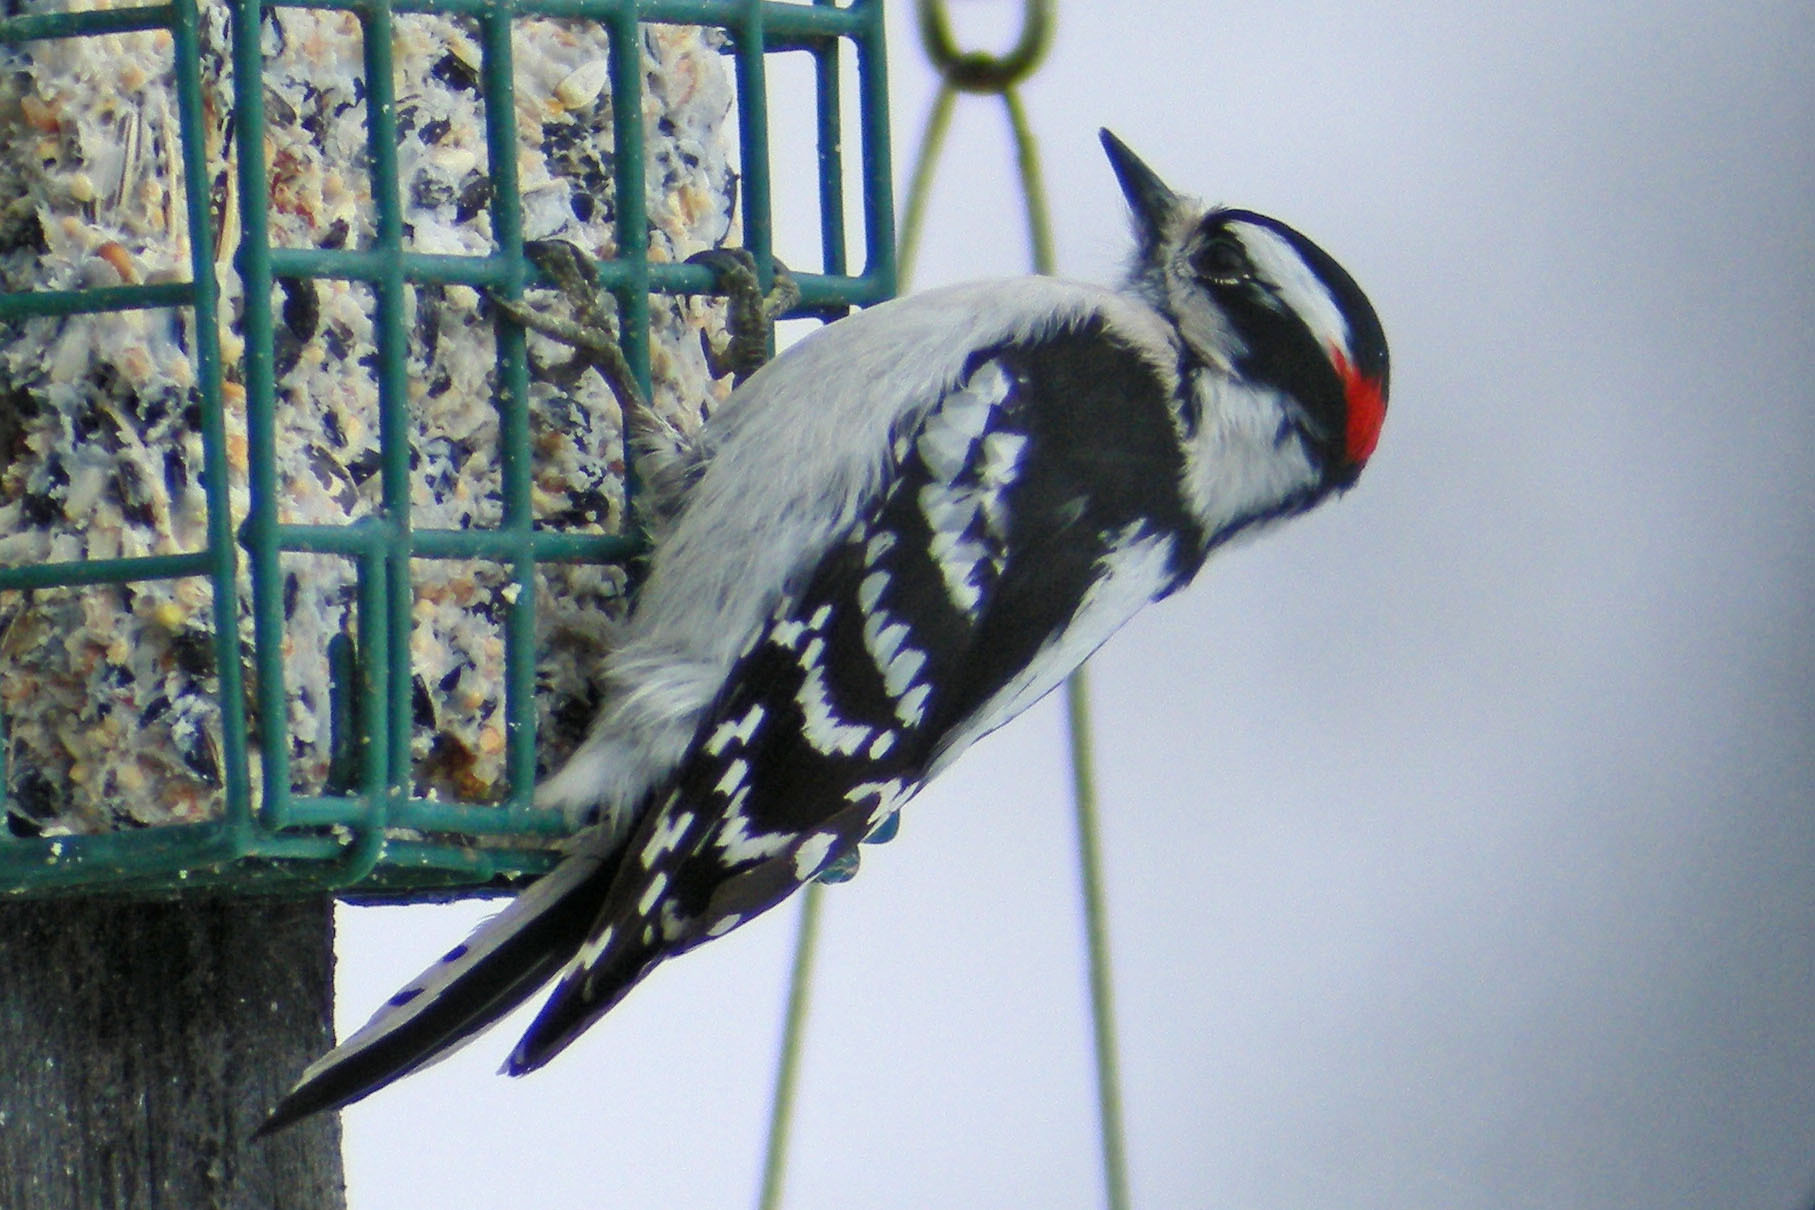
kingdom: Animalia
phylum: Chordata
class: Aves
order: Piciformes
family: Picidae
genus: Dryobates
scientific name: Dryobates pubescens
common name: Downy woodpecker
